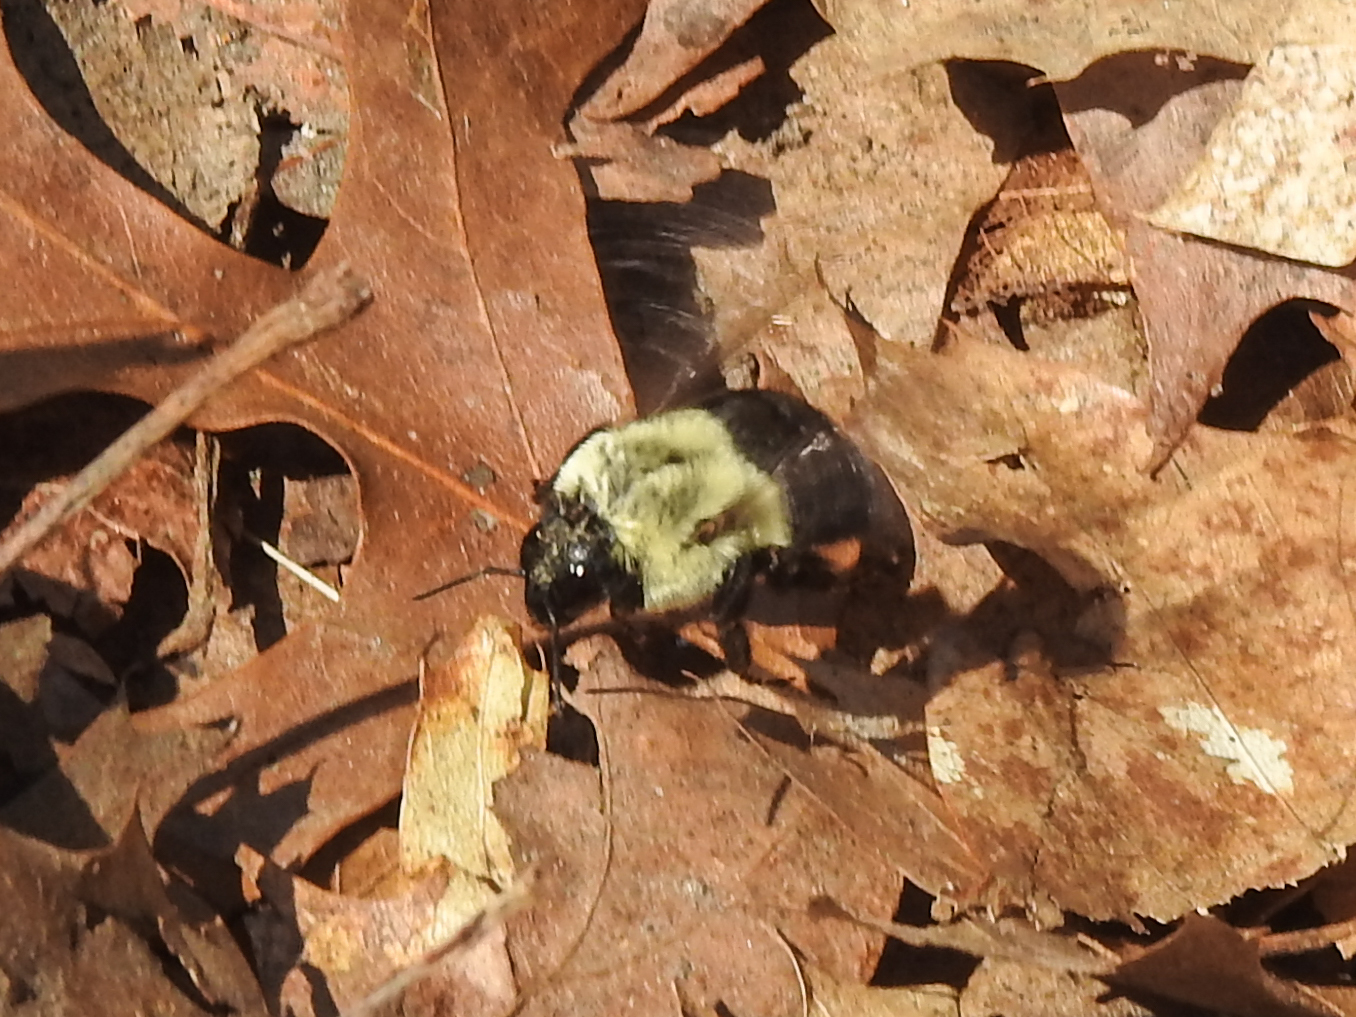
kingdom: Animalia
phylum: Arthropoda
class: Insecta
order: Hymenoptera
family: Apidae
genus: Bombus
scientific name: Bombus impatiens
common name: Common eastern bumble bee
